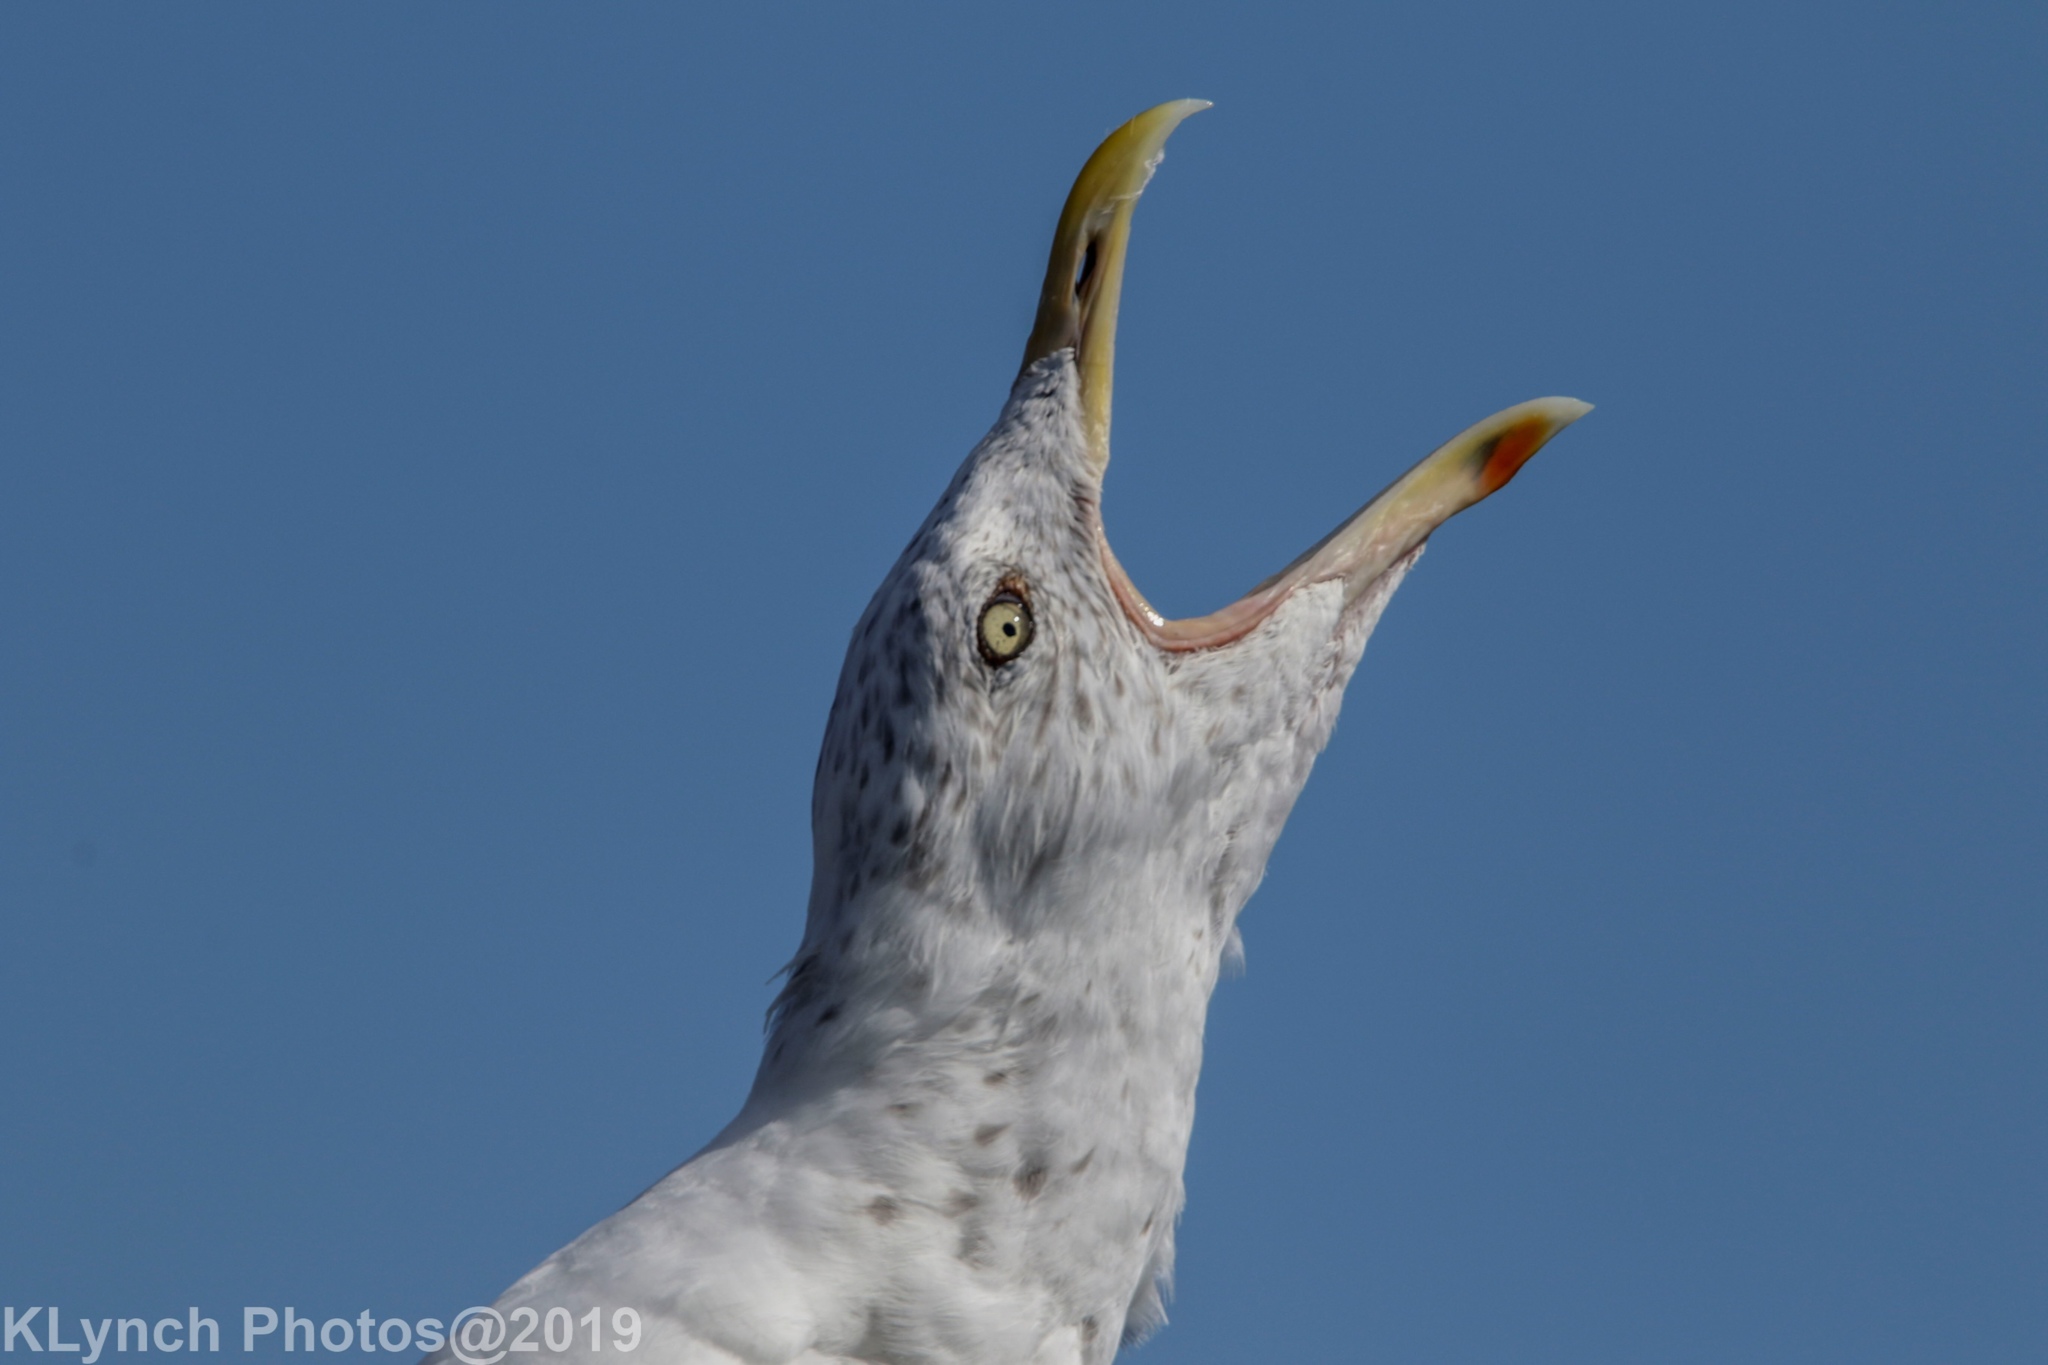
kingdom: Animalia
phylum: Chordata
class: Aves
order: Charadriiformes
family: Laridae
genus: Larus
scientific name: Larus argentatus
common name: Herring gull
